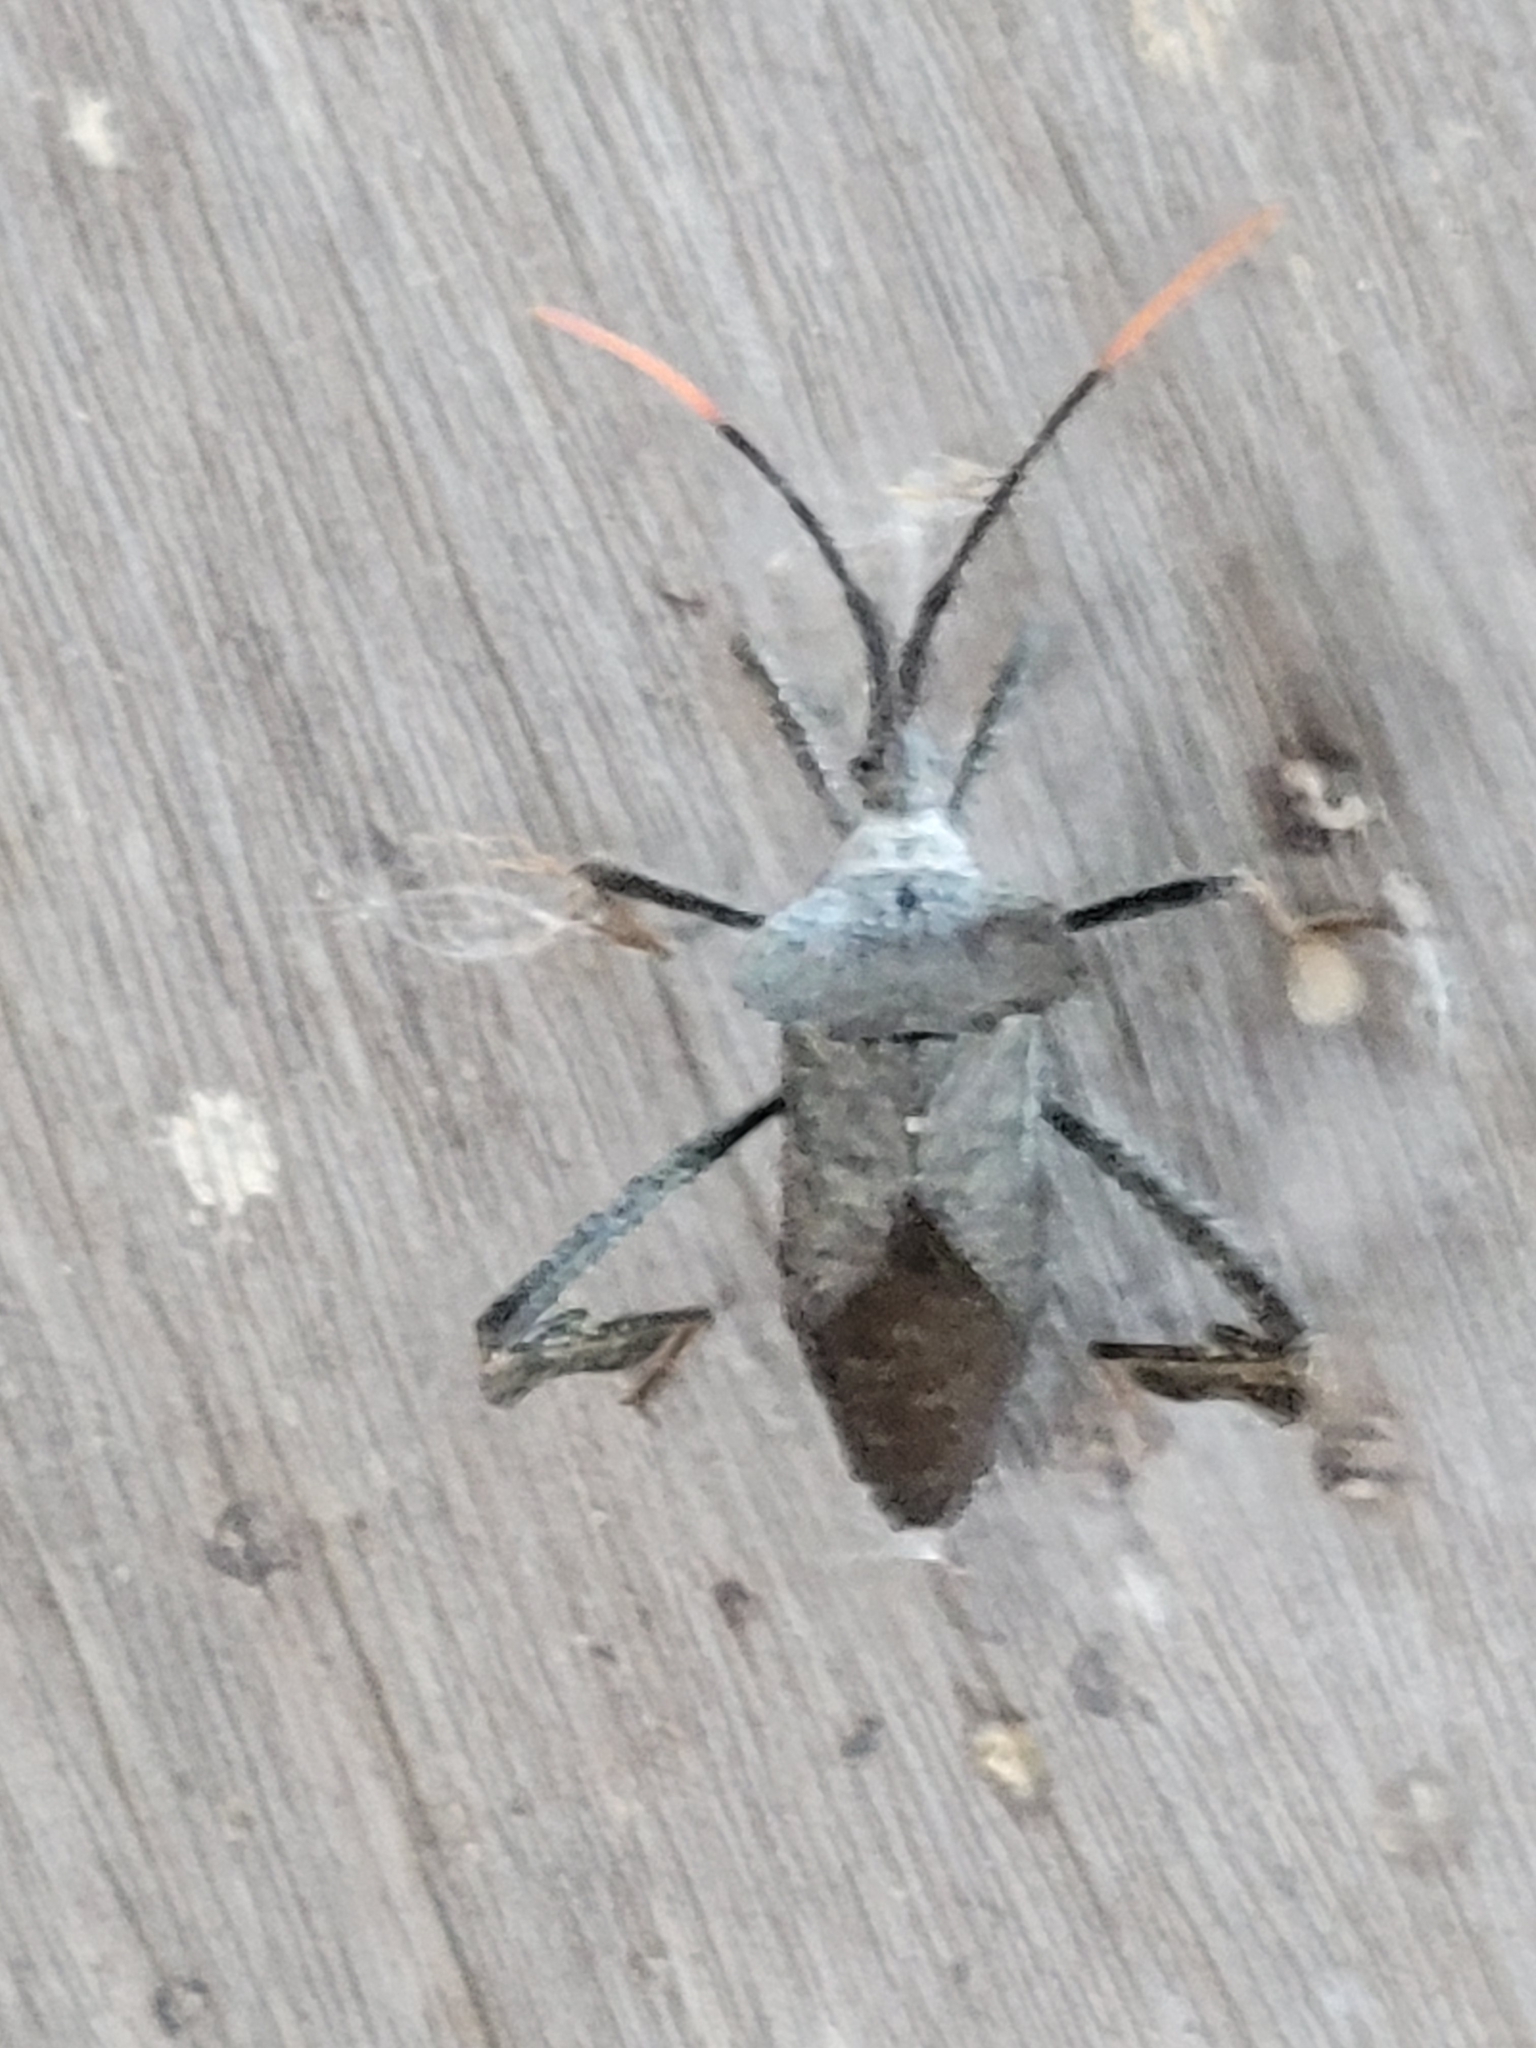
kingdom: Animalia
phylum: Arthropoda
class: Insecta
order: Hemiptera
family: Coreidae
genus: Acanthocephala
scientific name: Acanthocephala alata
